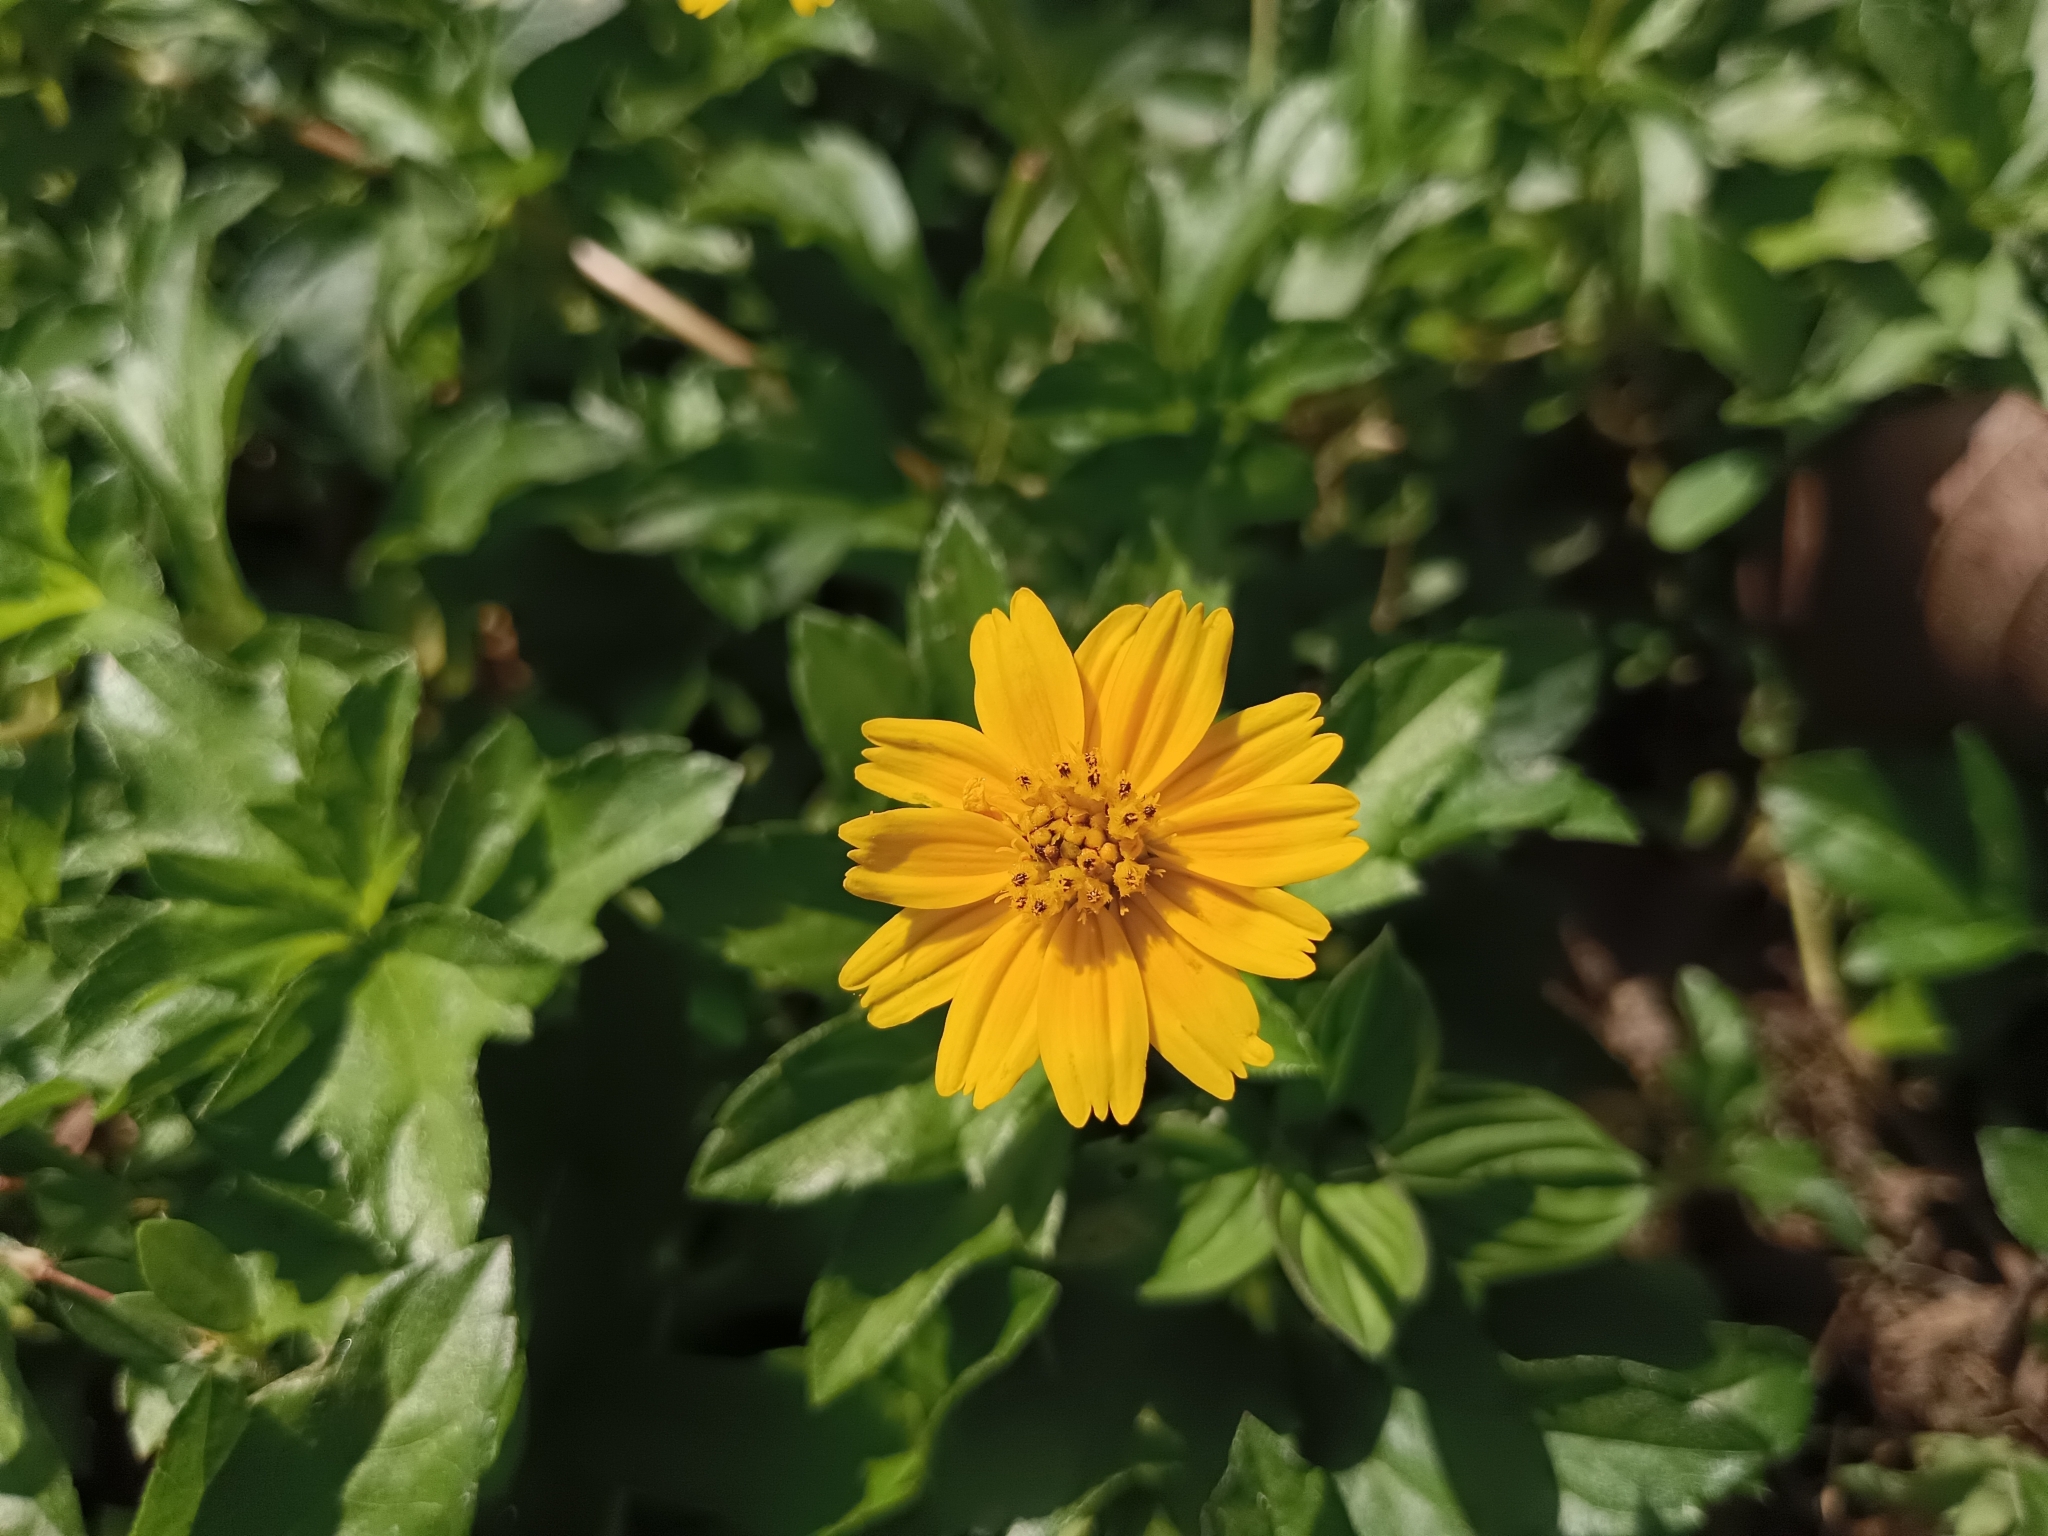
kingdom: Plantae
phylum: Tracheophyta
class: Magnoliopsida
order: Asterales
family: Asteraceae
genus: Sphagneticola
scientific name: Sphagneticola trilobata
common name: Bay biscayne creeping-oxeye
